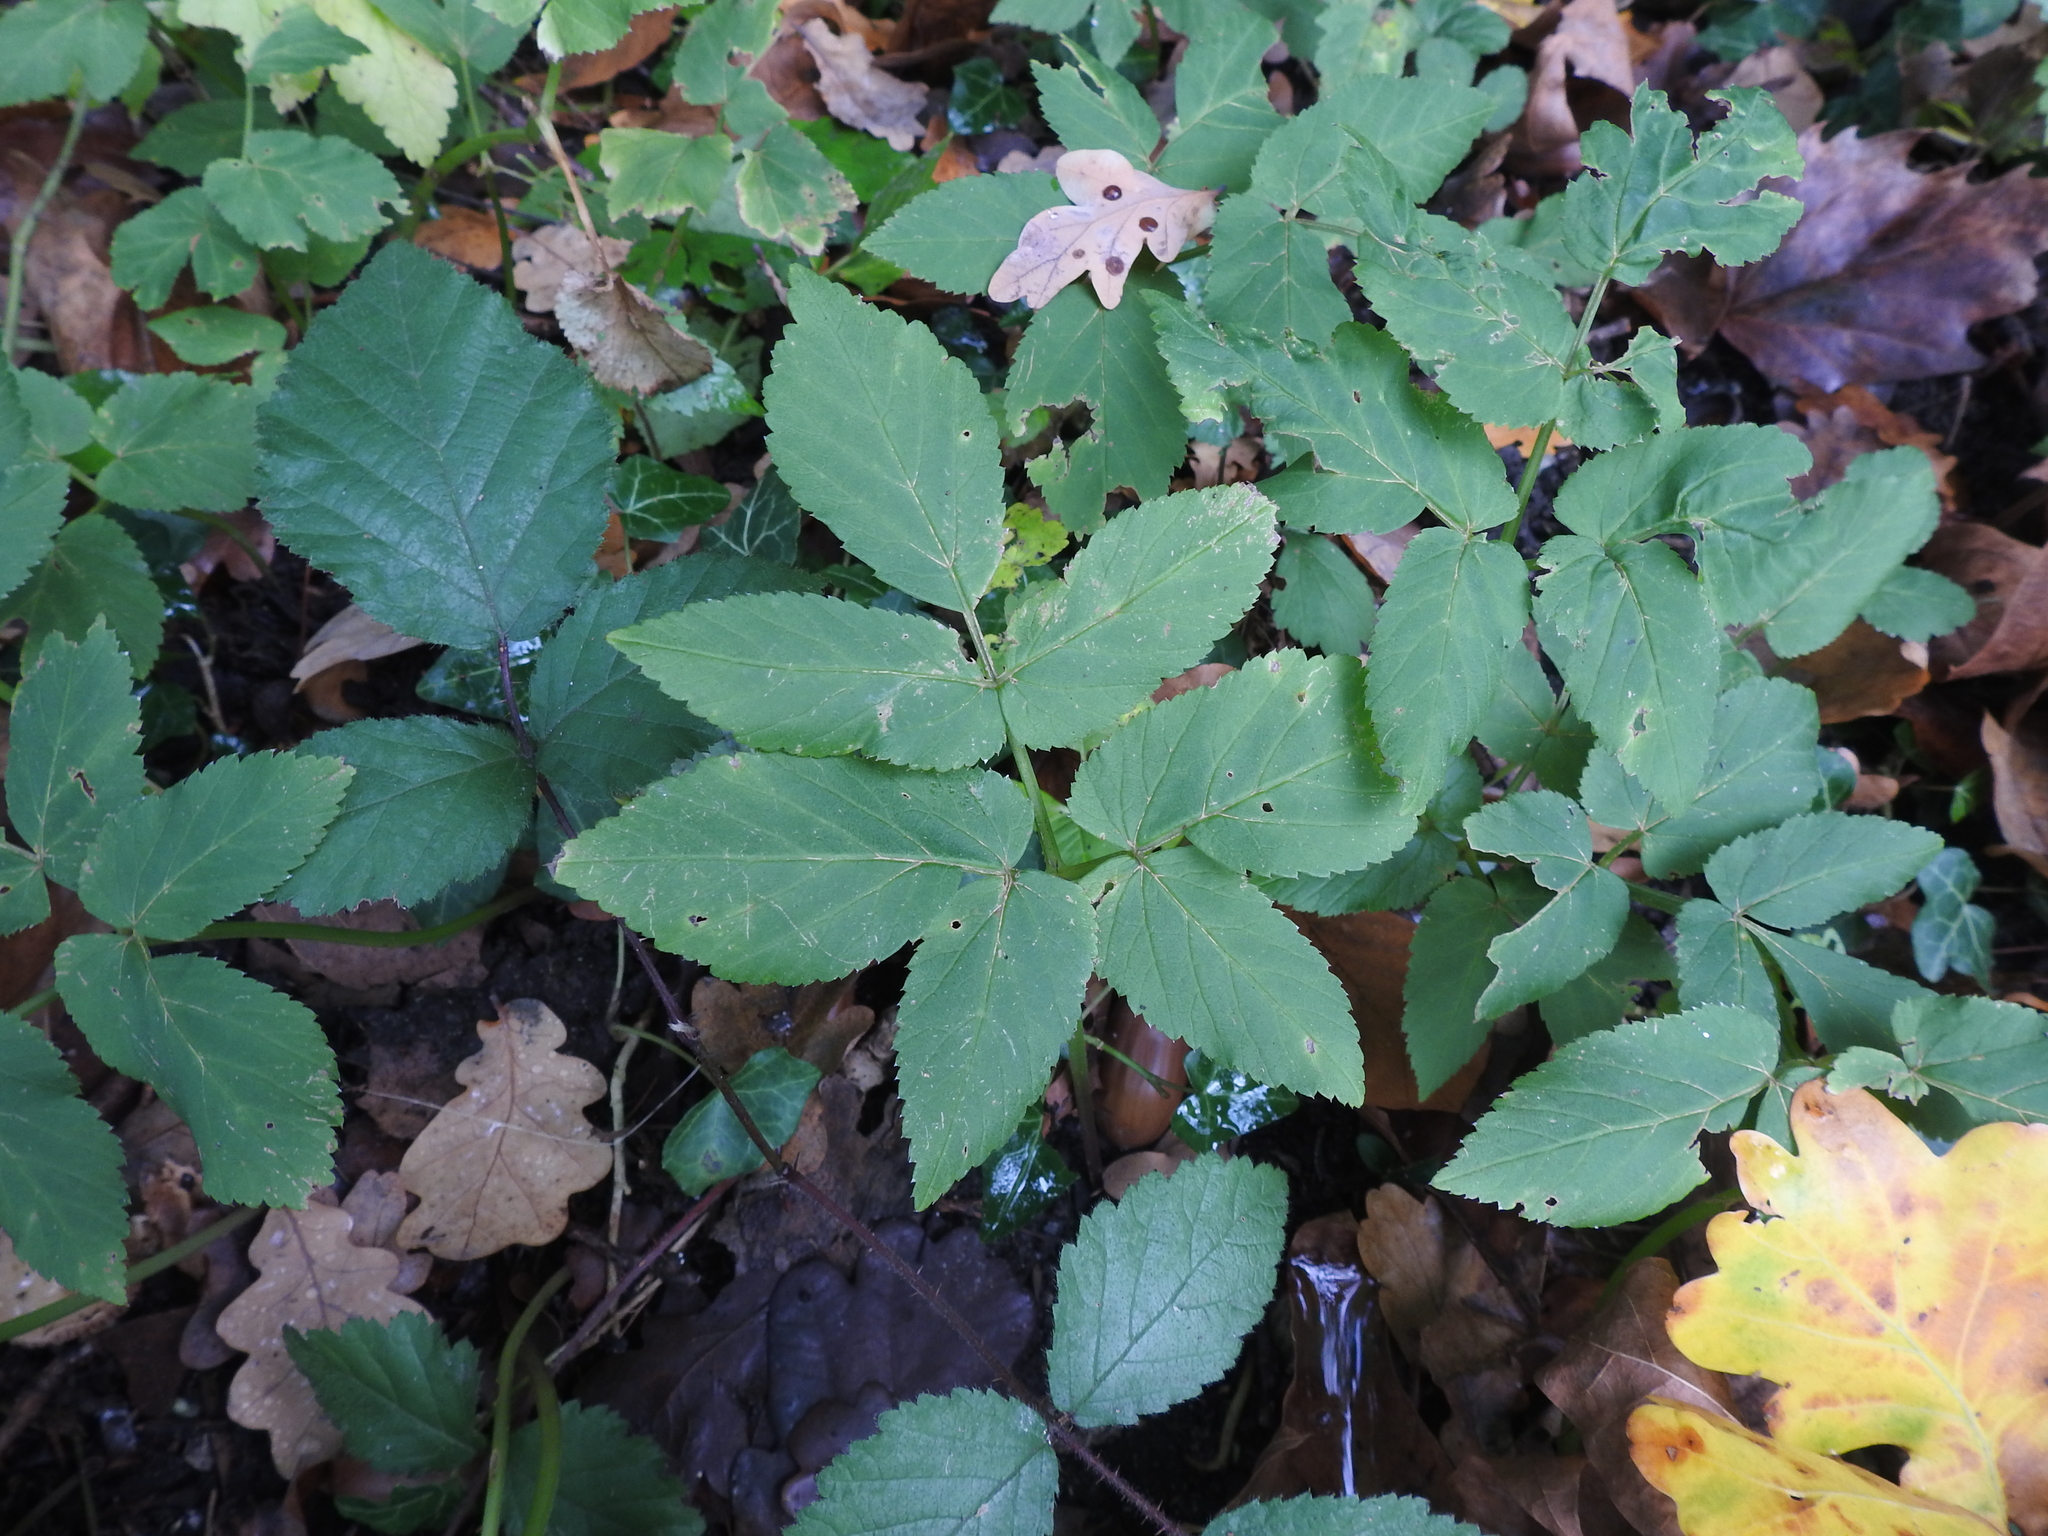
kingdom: Plantae
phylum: Tracheophyta
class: Magnoliopsida
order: Apiales
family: Apiaceae
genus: Aegopodium
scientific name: Aegopodium podagraria
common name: Ground-elder
